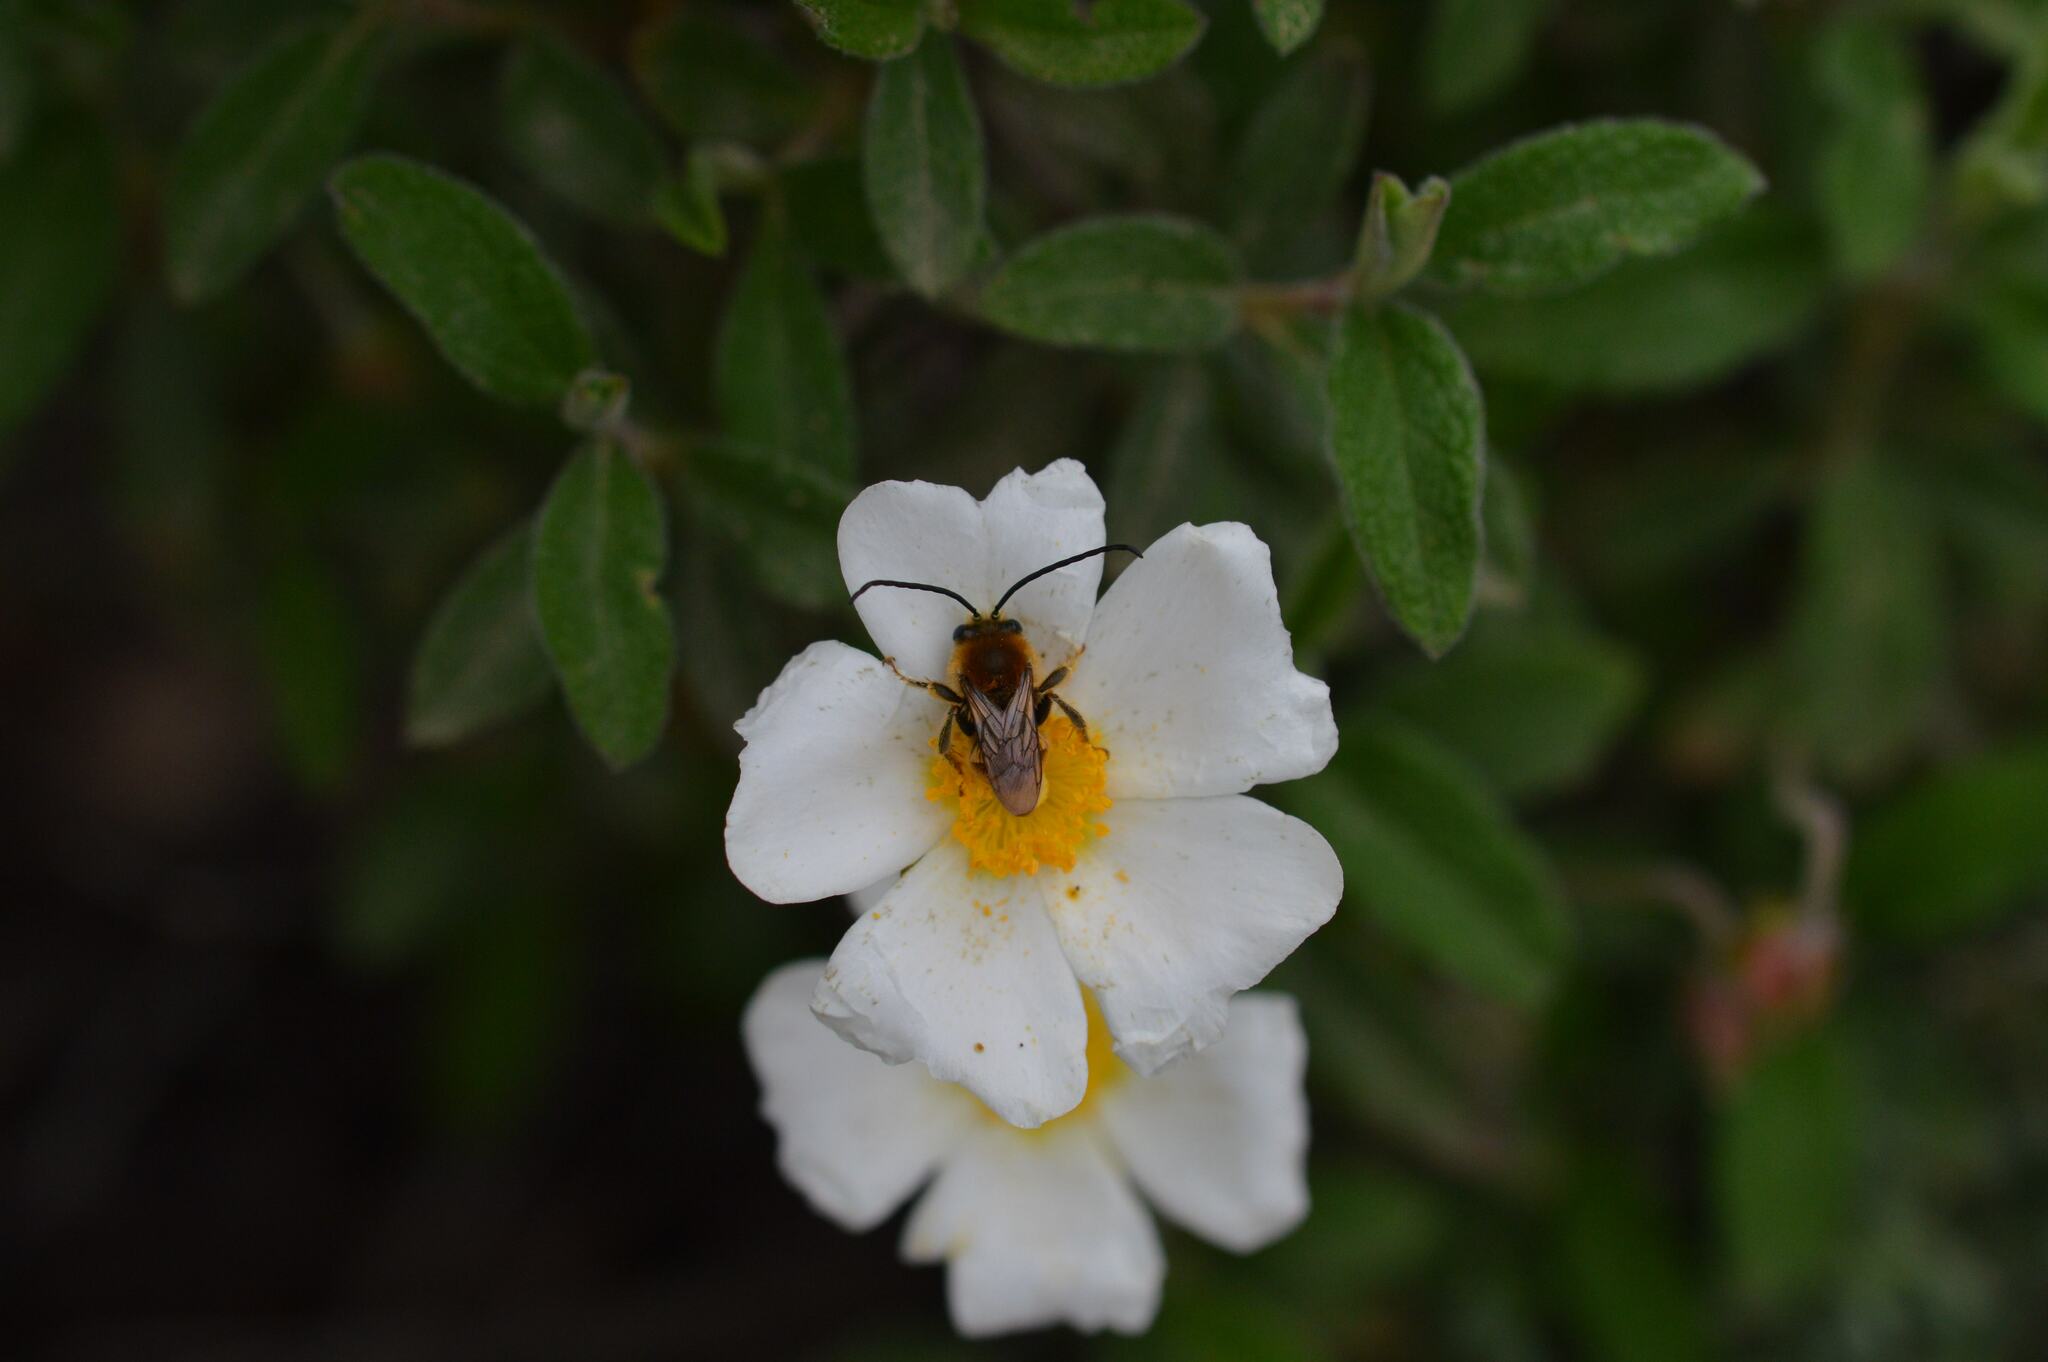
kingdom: Plantae
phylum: Tracheophyta
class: Magnoliopsida
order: Malvales
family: Cistaceae
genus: Cistus
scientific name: Cistus salviifolius
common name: Salvia cistus
